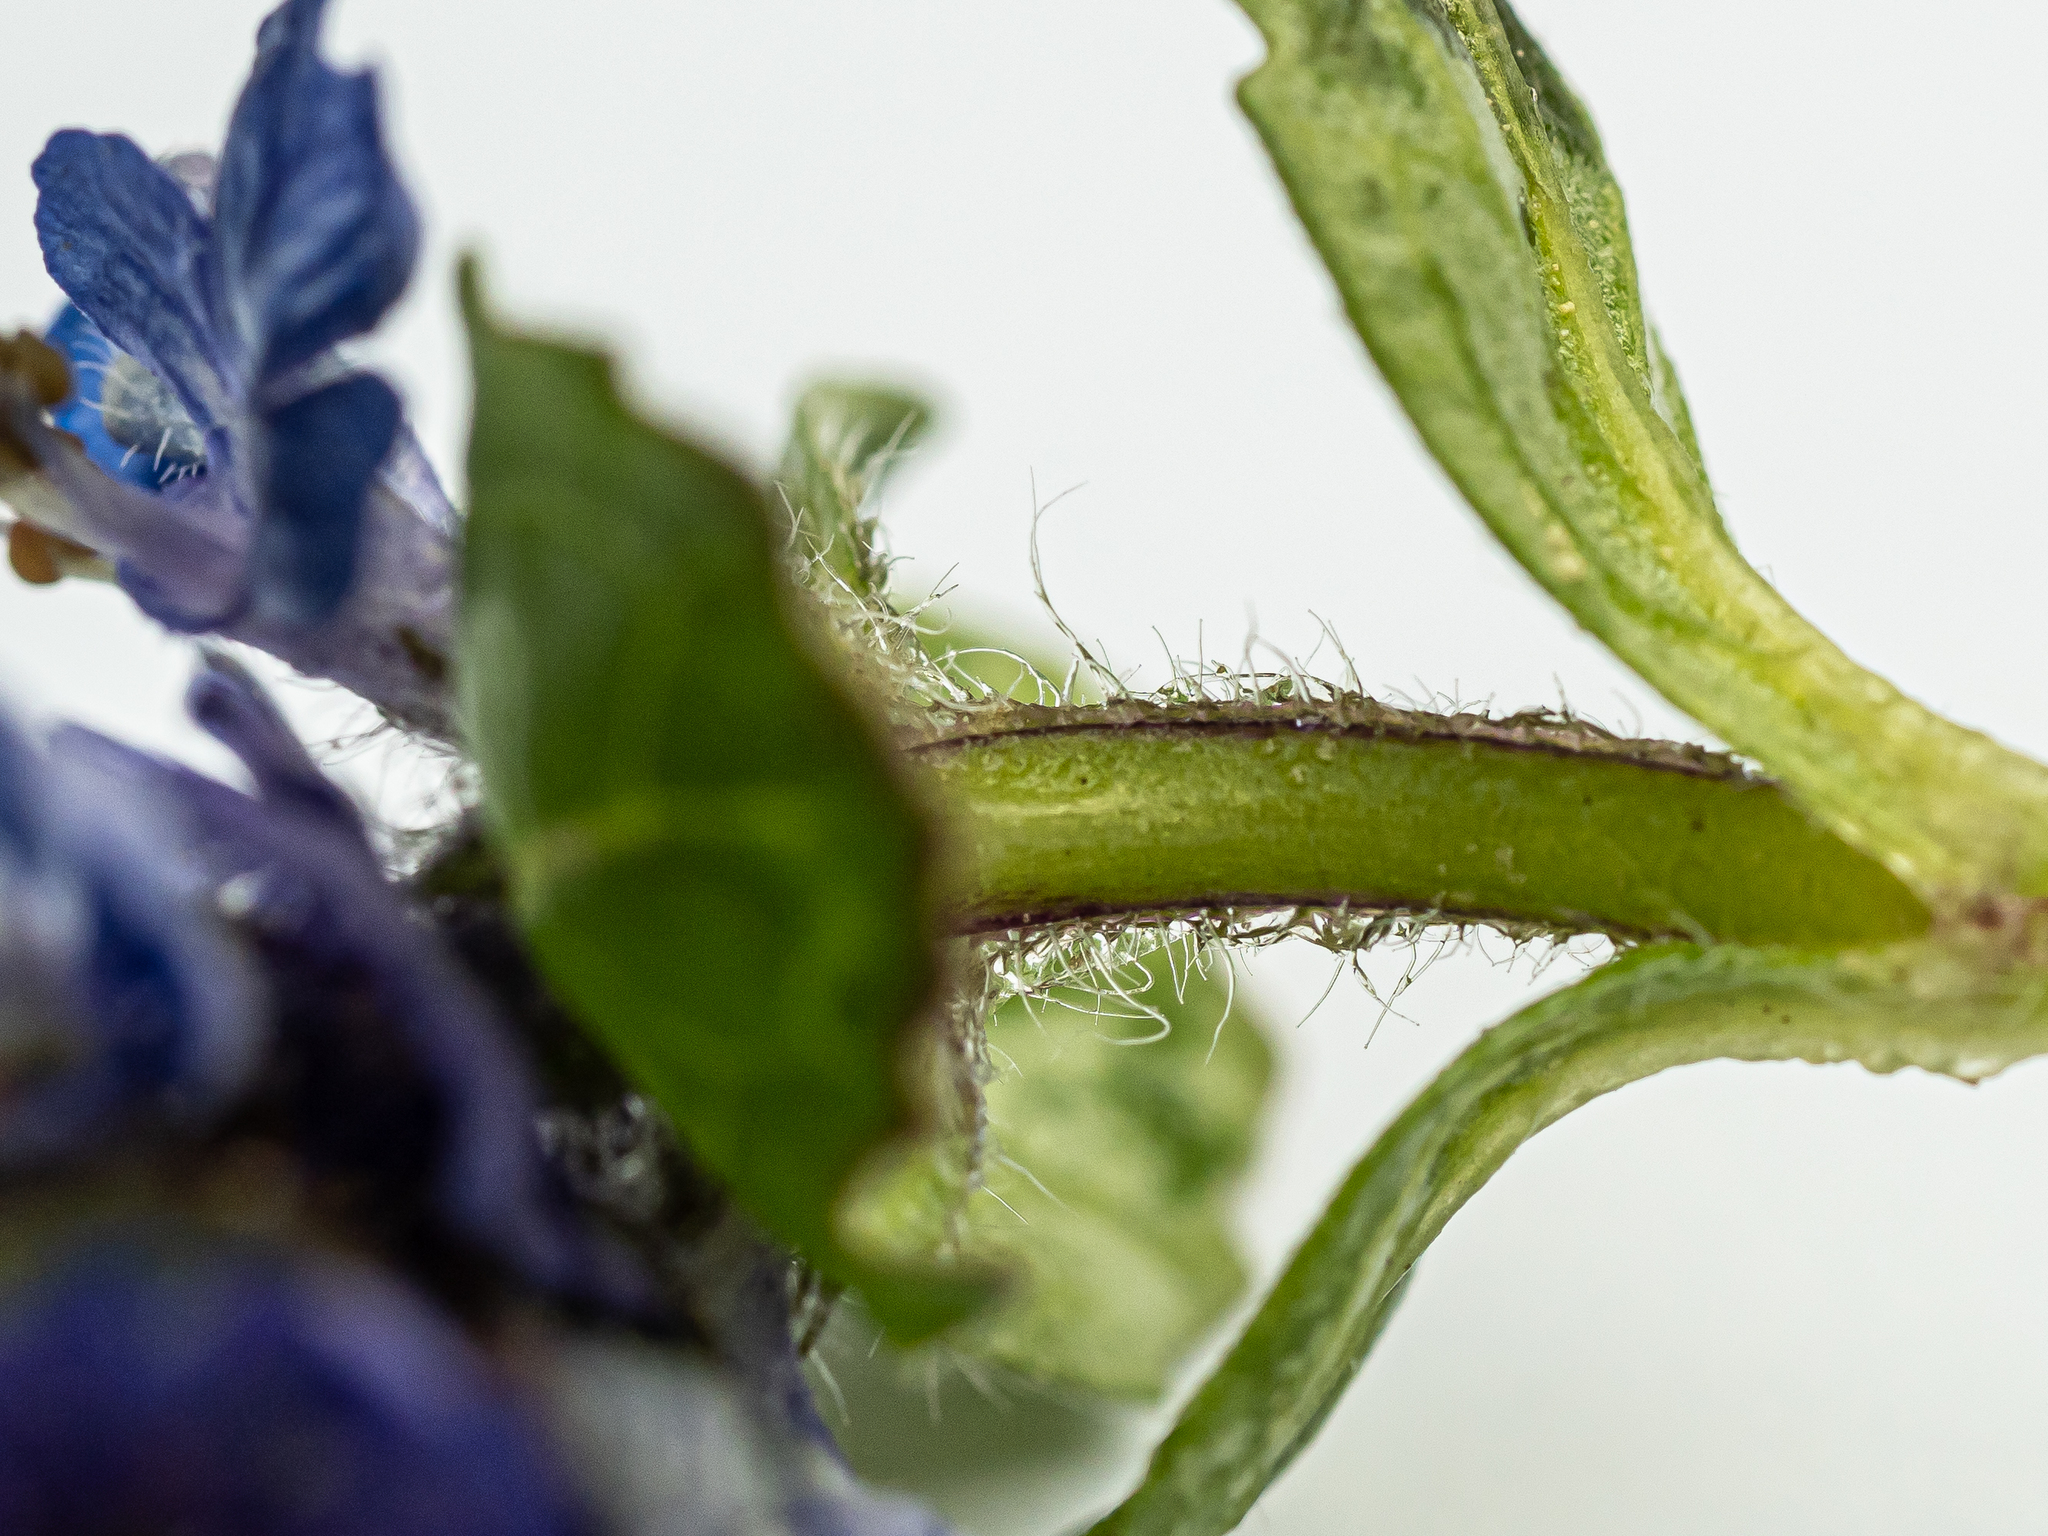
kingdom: Plantae
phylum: Tracheophyta
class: Magnoliopsida
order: Lamiales
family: Lamiaceae
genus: Ajuga
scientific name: Ajuga reptans
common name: Bugle
